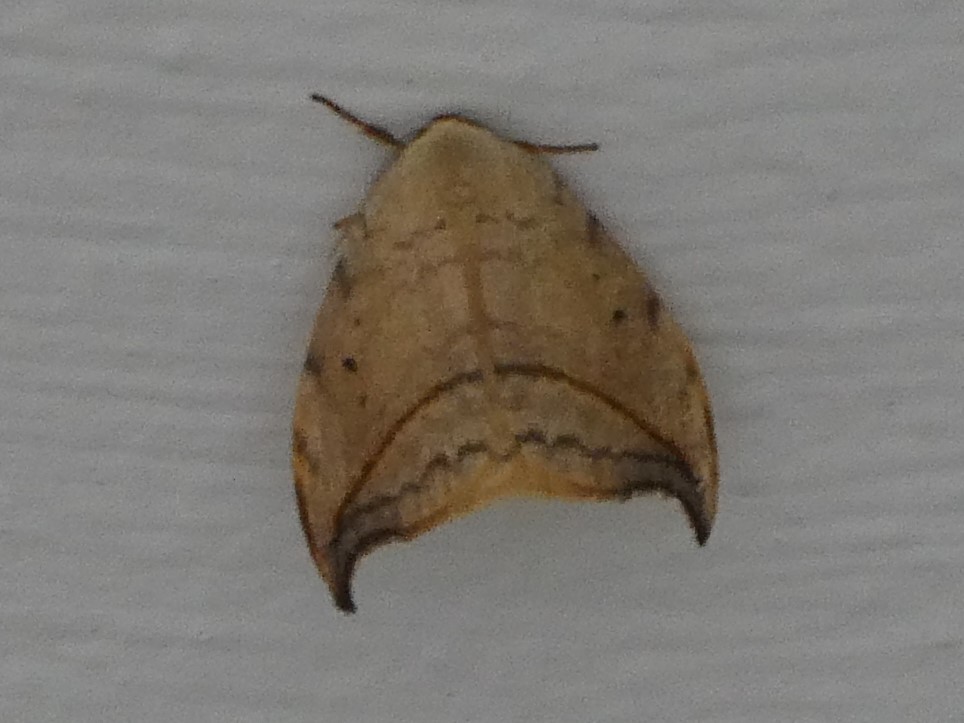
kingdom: Animalia
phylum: Arthropoda
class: Insecta
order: Lepidoptera
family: Drepanidae
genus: Drepana
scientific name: Drepana arcuata
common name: Arched hooktip moth
